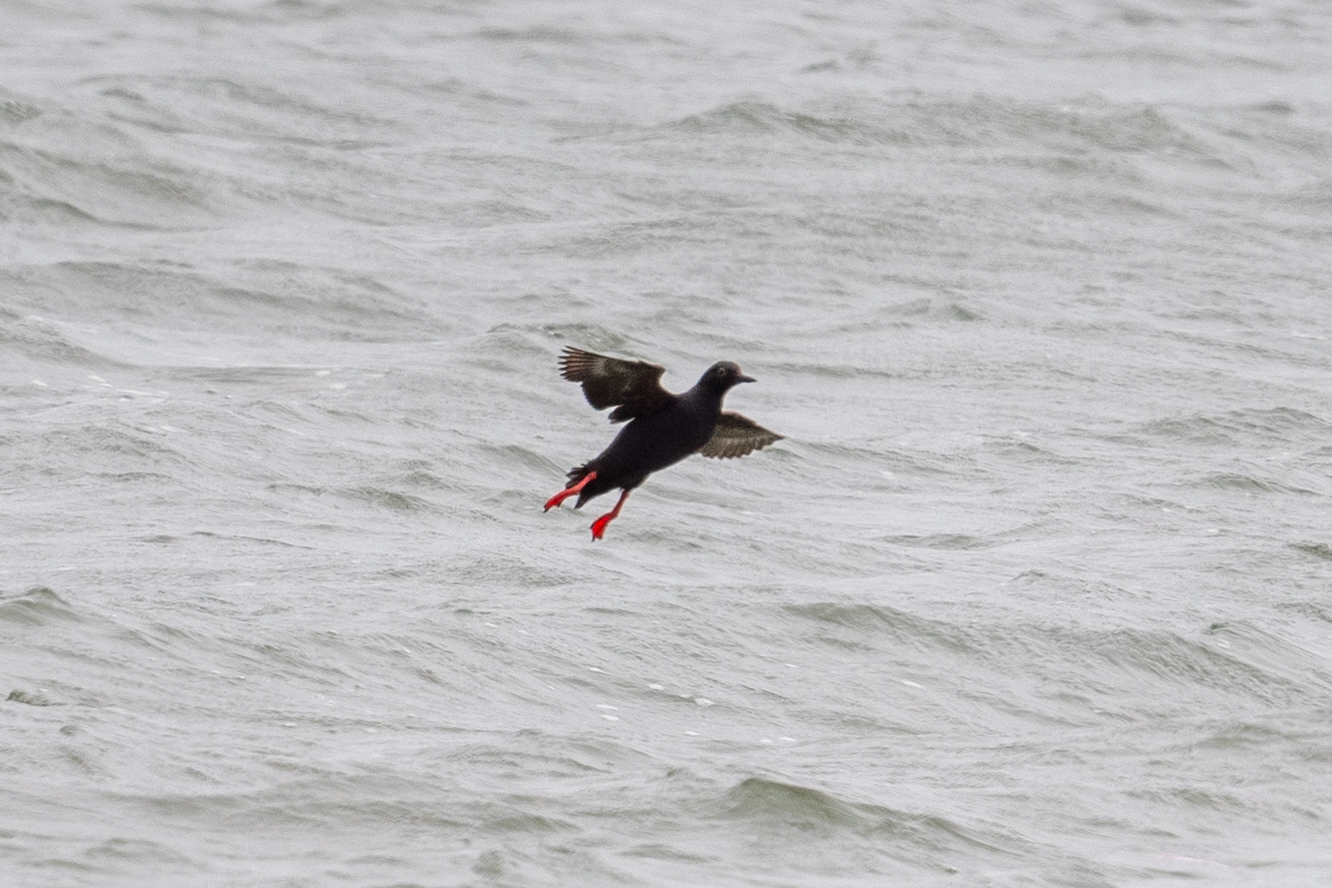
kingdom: Animalia
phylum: Chordata
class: Aves
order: Charadriiformes
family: Alcidae
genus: Cepphus
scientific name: Cepphus columba
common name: Pigeon guillemot
